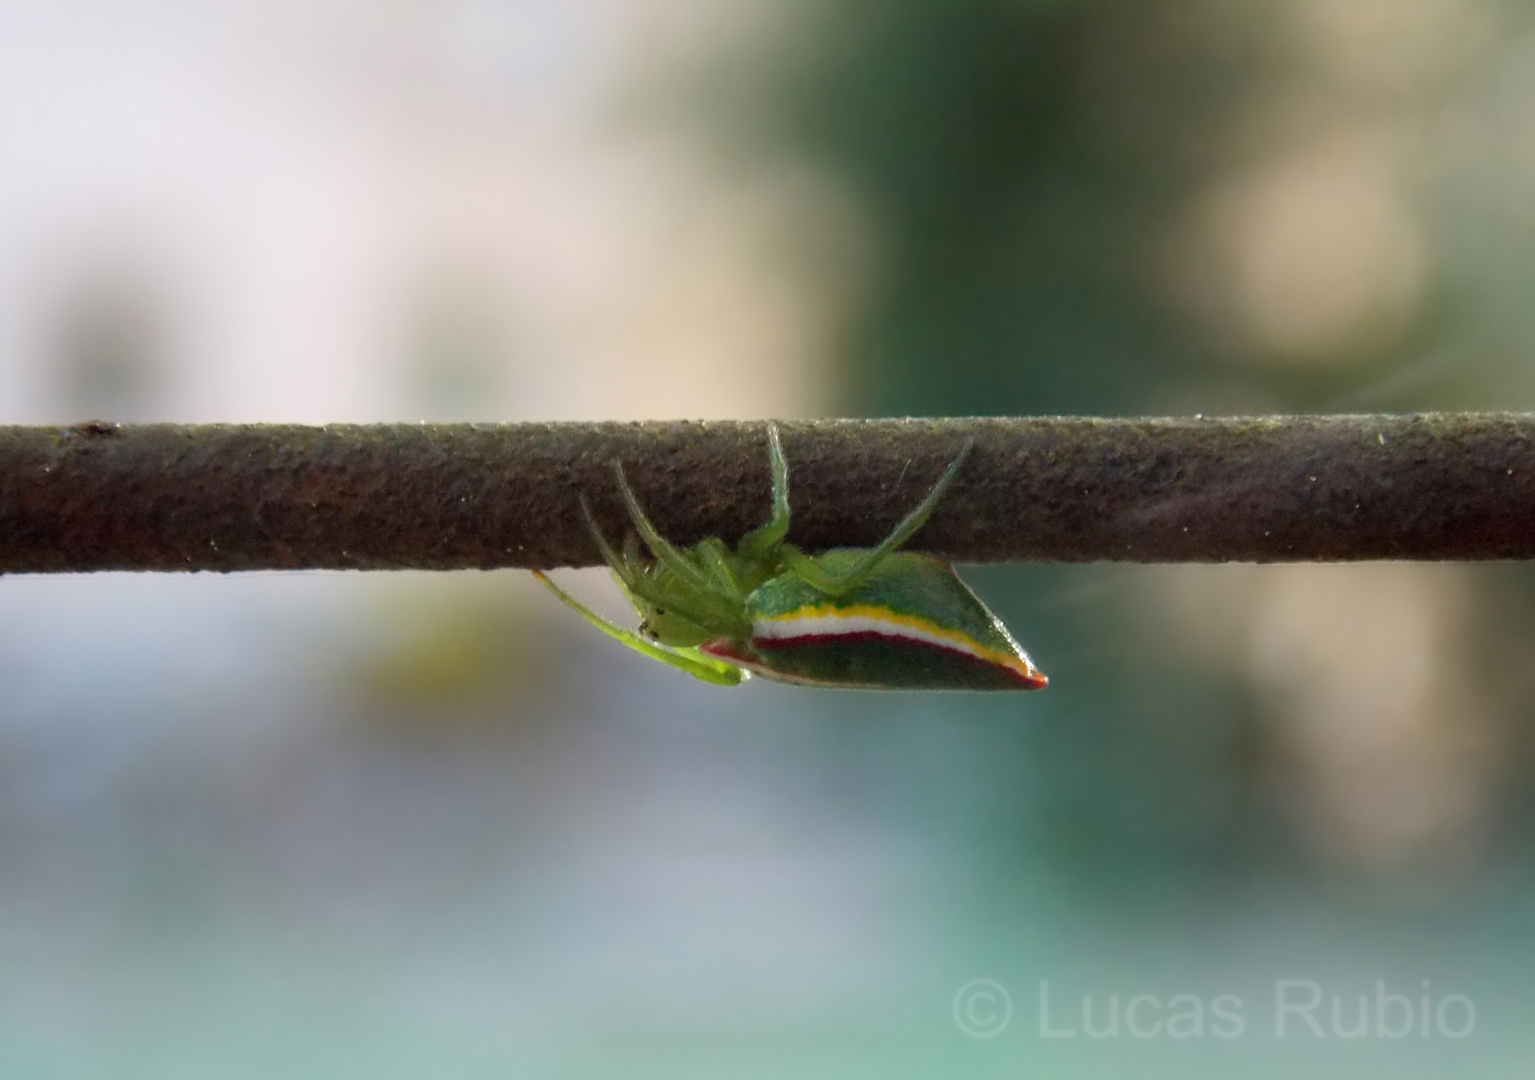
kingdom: Animalia
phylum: Arthropoda
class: Arachnida
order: Araneae
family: Araneidae
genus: Alpaida
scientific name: Alpaida rostratula
